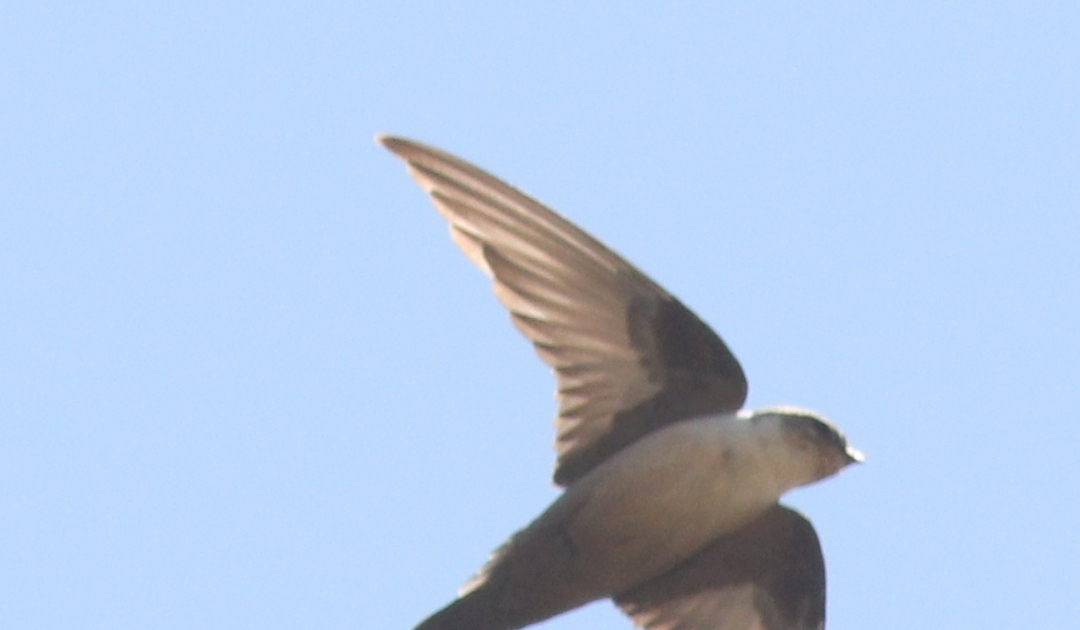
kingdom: Animalia
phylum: Chordata
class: Aves
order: Passeriformes
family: Hirundinidae
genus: Ptyonoprogne
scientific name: Ptyonoprogne rupestris
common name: Eurasian crag martin
